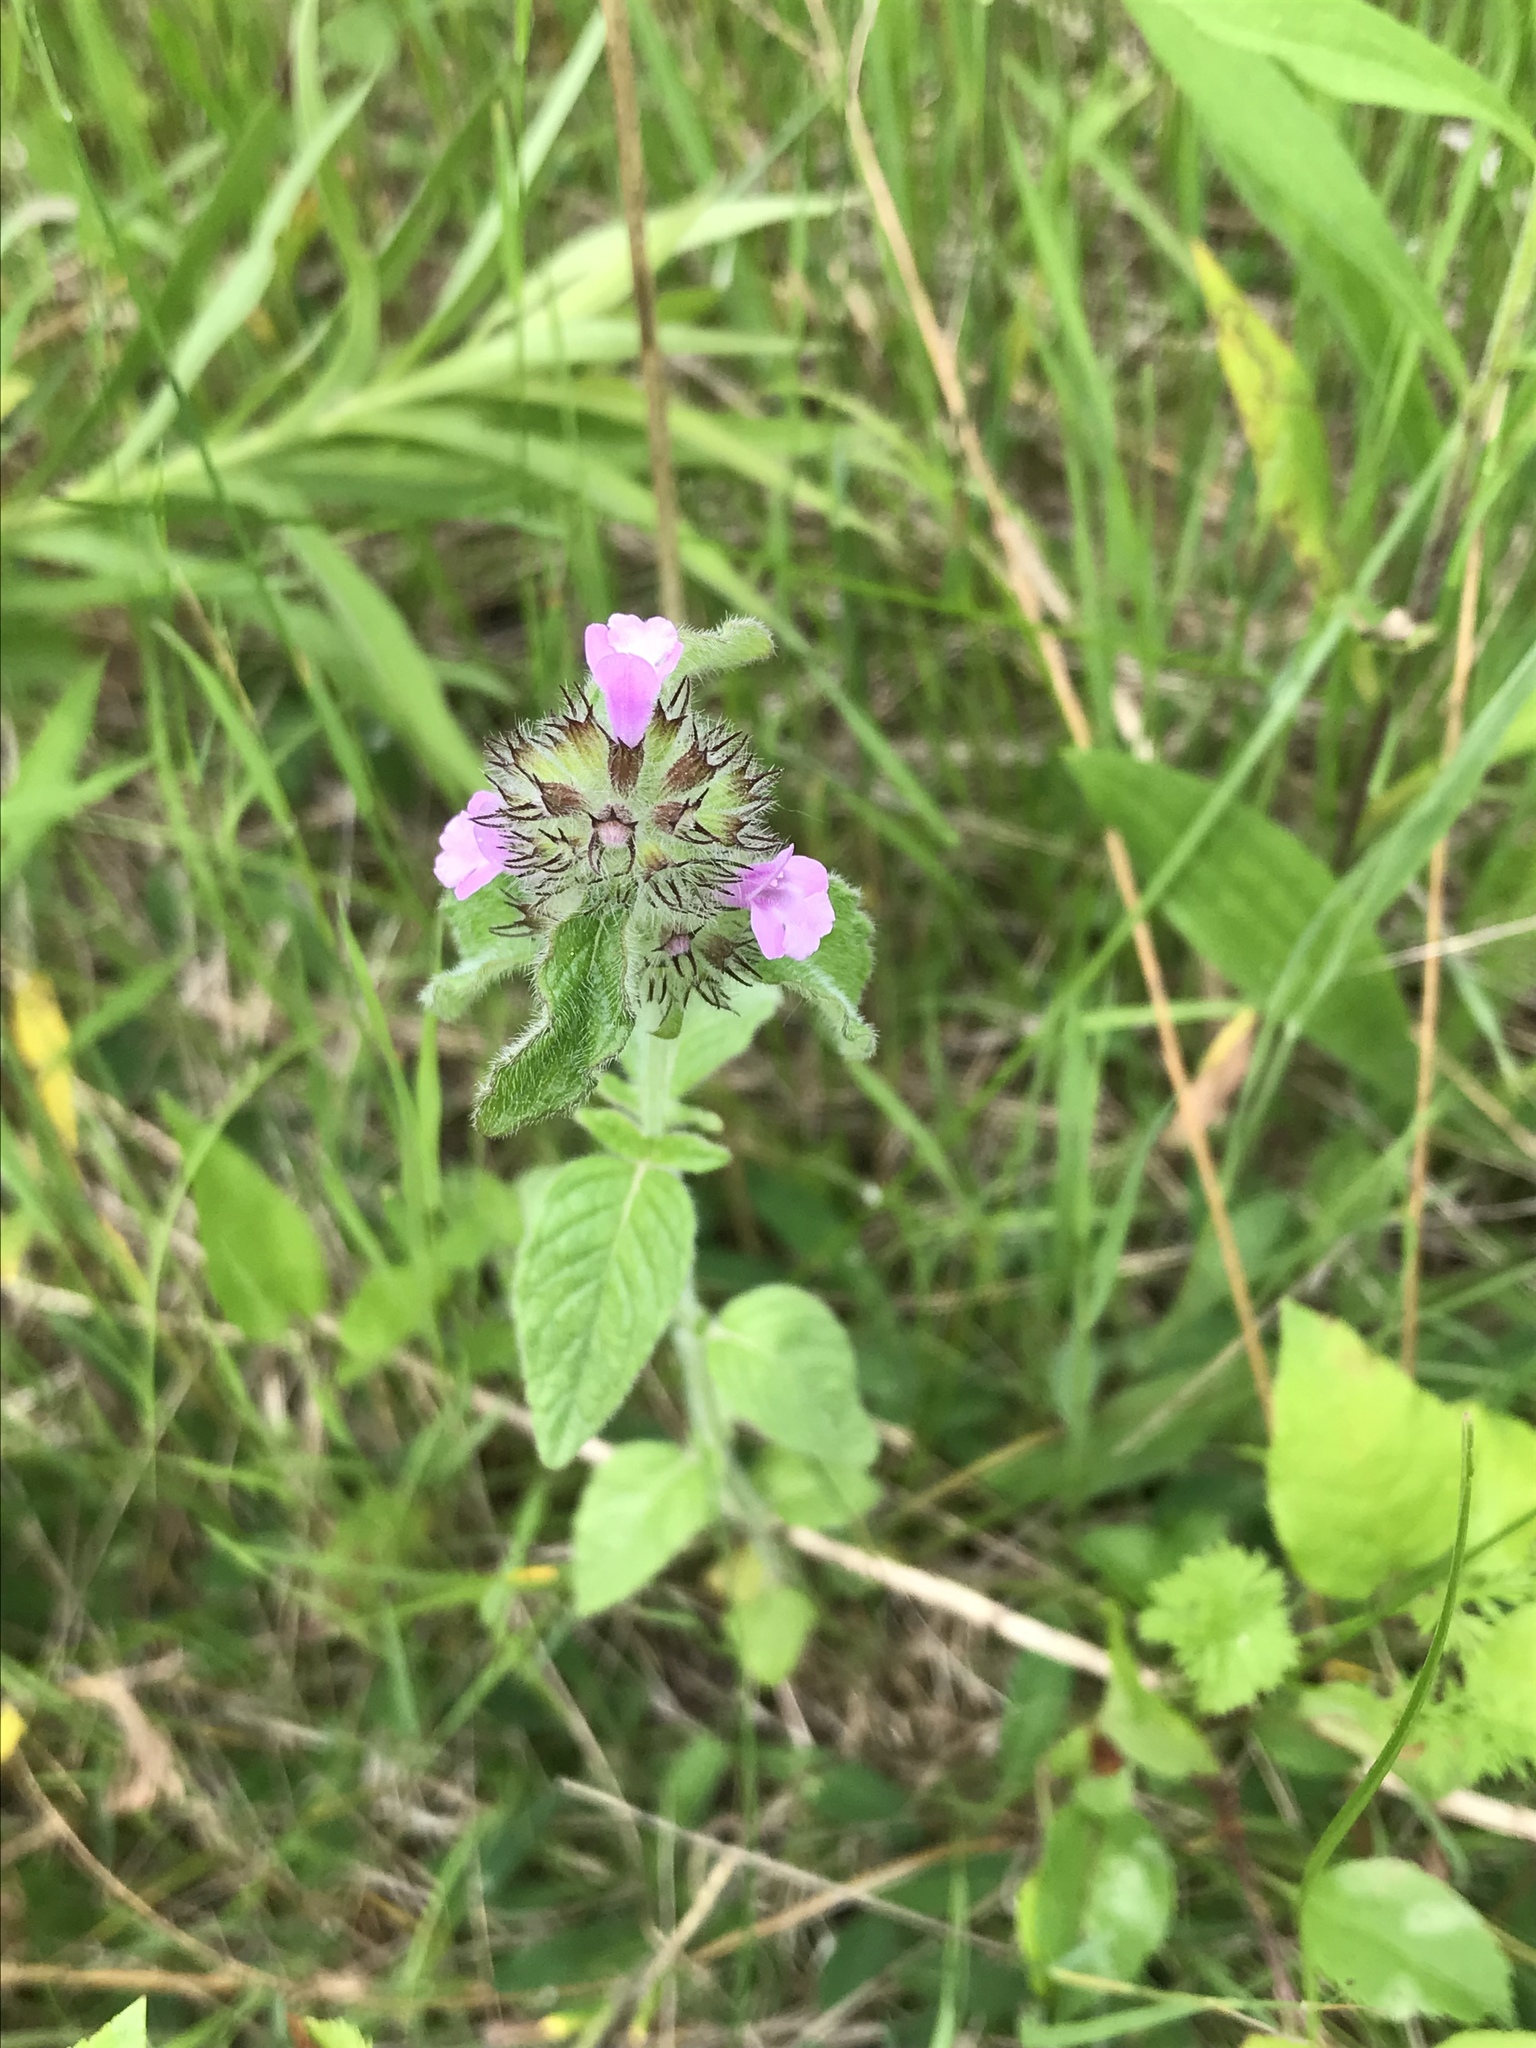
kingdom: Plantae
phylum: Tracheophyta
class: Magnoliopsida
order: Lamiales
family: Lamiaceae
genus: Clinopodium
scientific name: Clinopodium vulgare
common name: Wild basil
